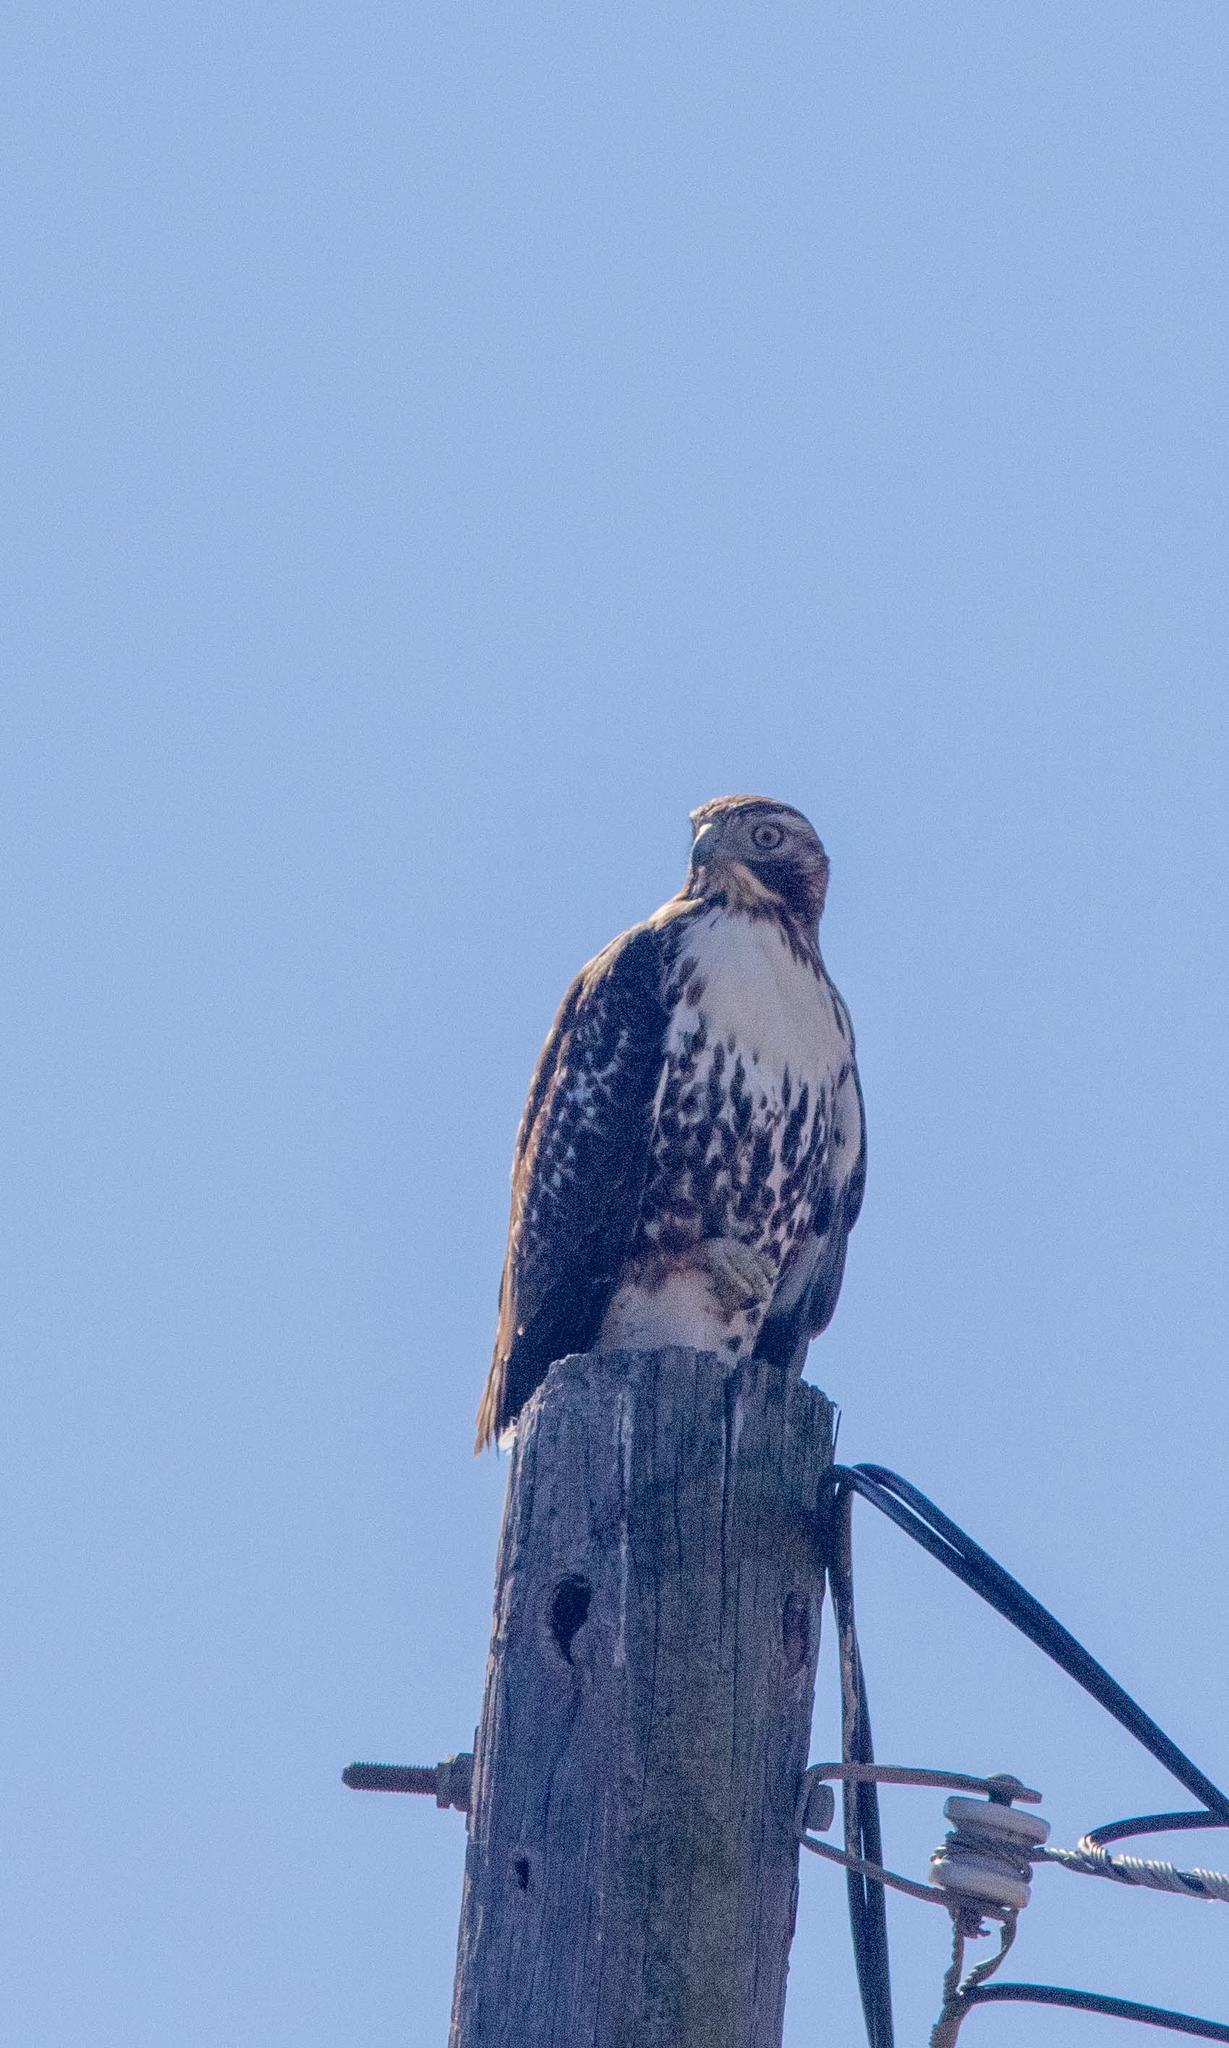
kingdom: Animalia
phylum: Chordata
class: Aves
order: Accipitriformes
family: Accipitridae
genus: Buteo
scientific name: Buteo jamaicensis
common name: Red-tailed hawk
